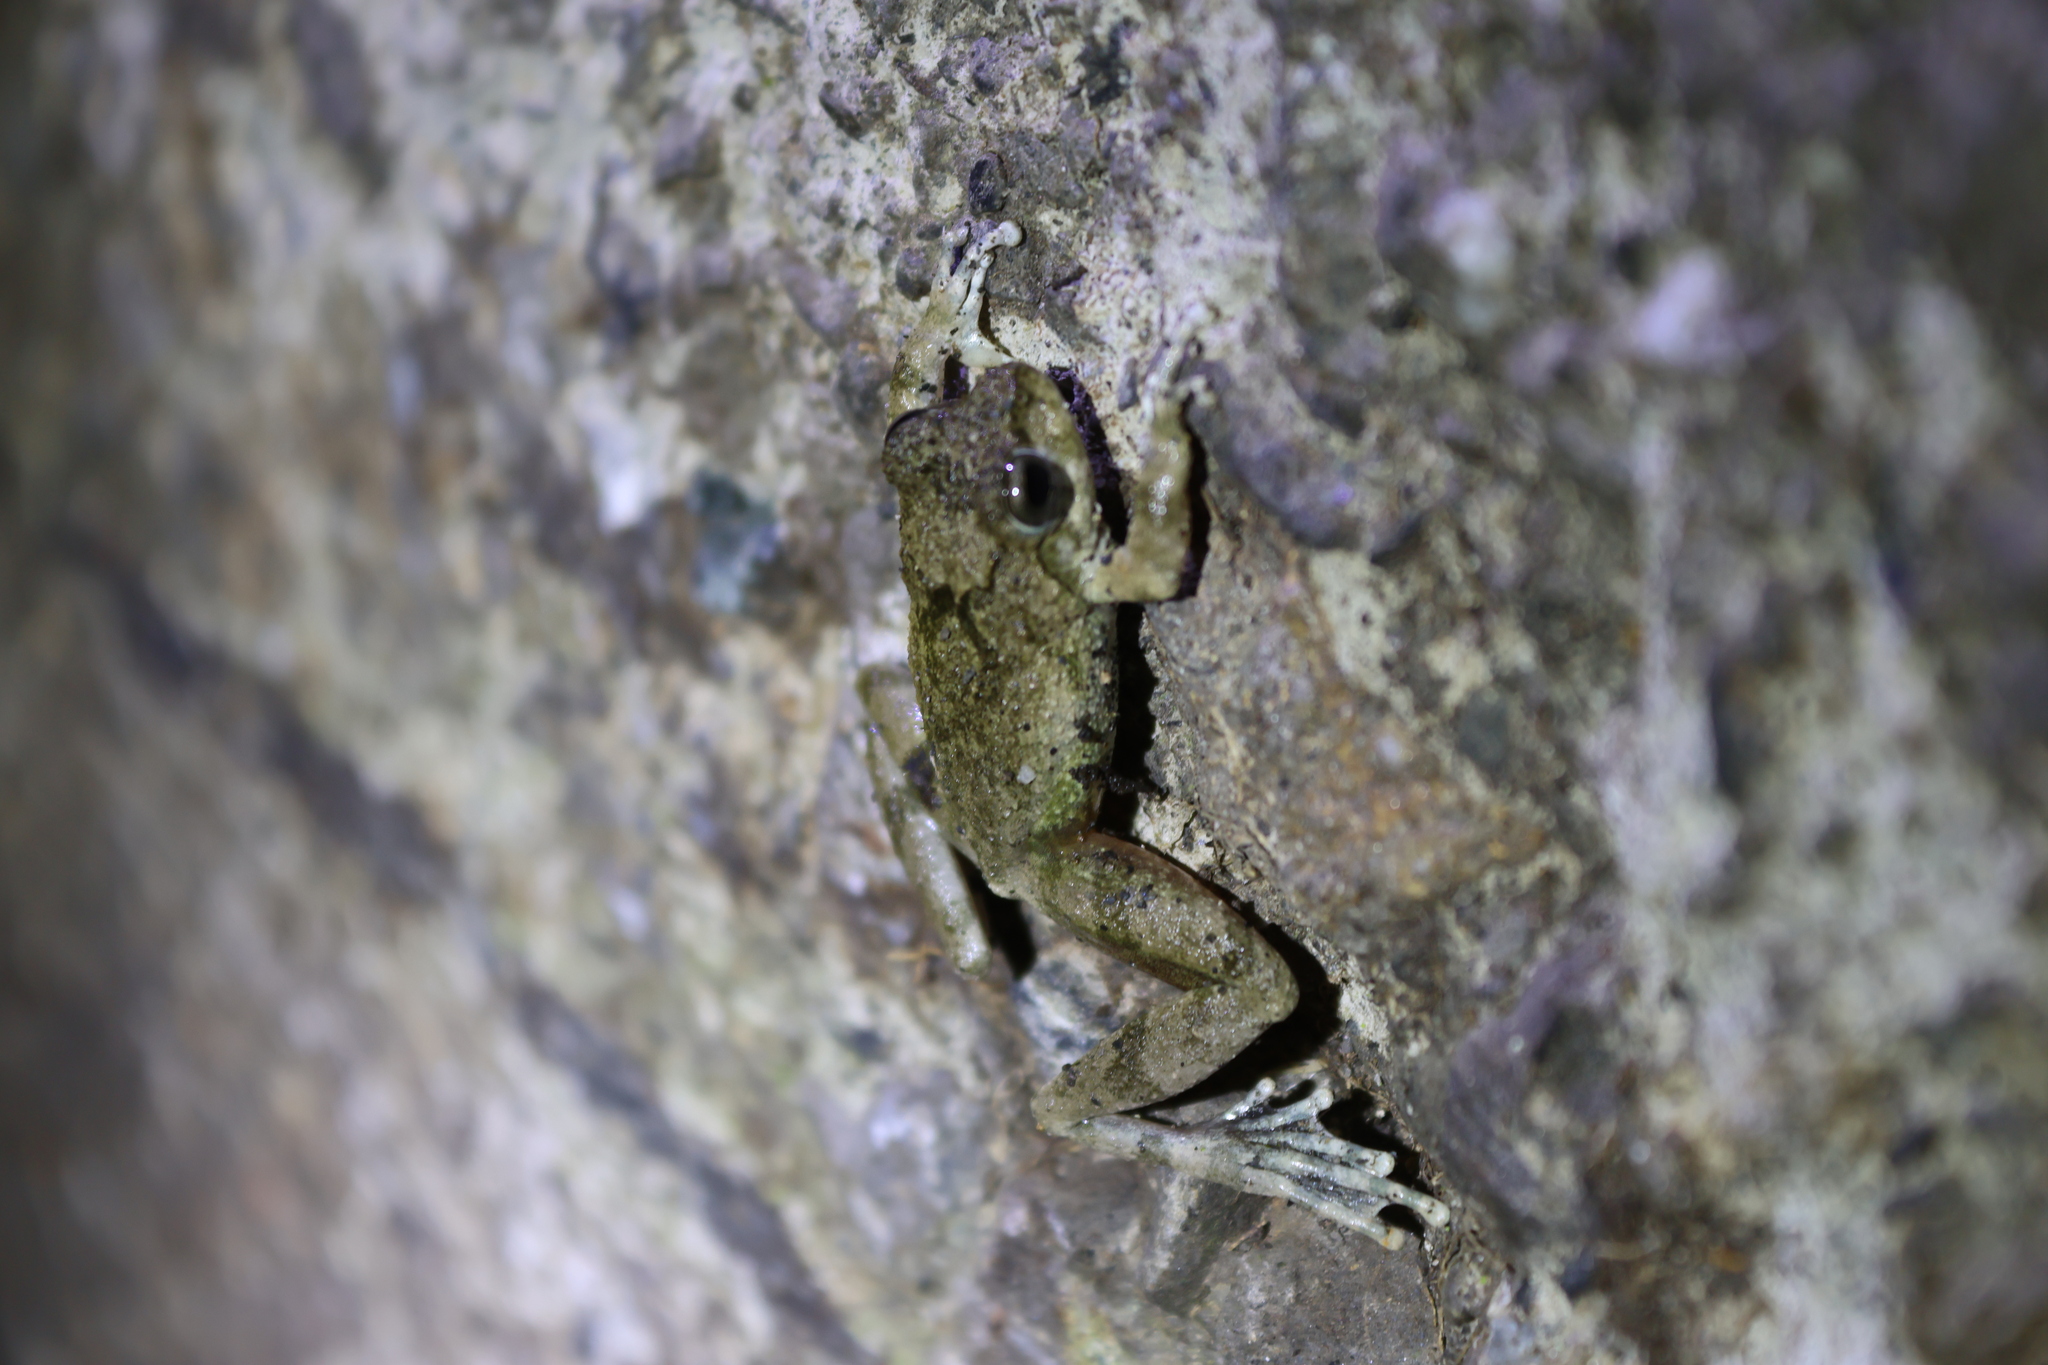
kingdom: Animalia
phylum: Chordata
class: Amphibia
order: Anura
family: Rhacophoridae
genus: Buergeria
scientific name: Buergeria otai
